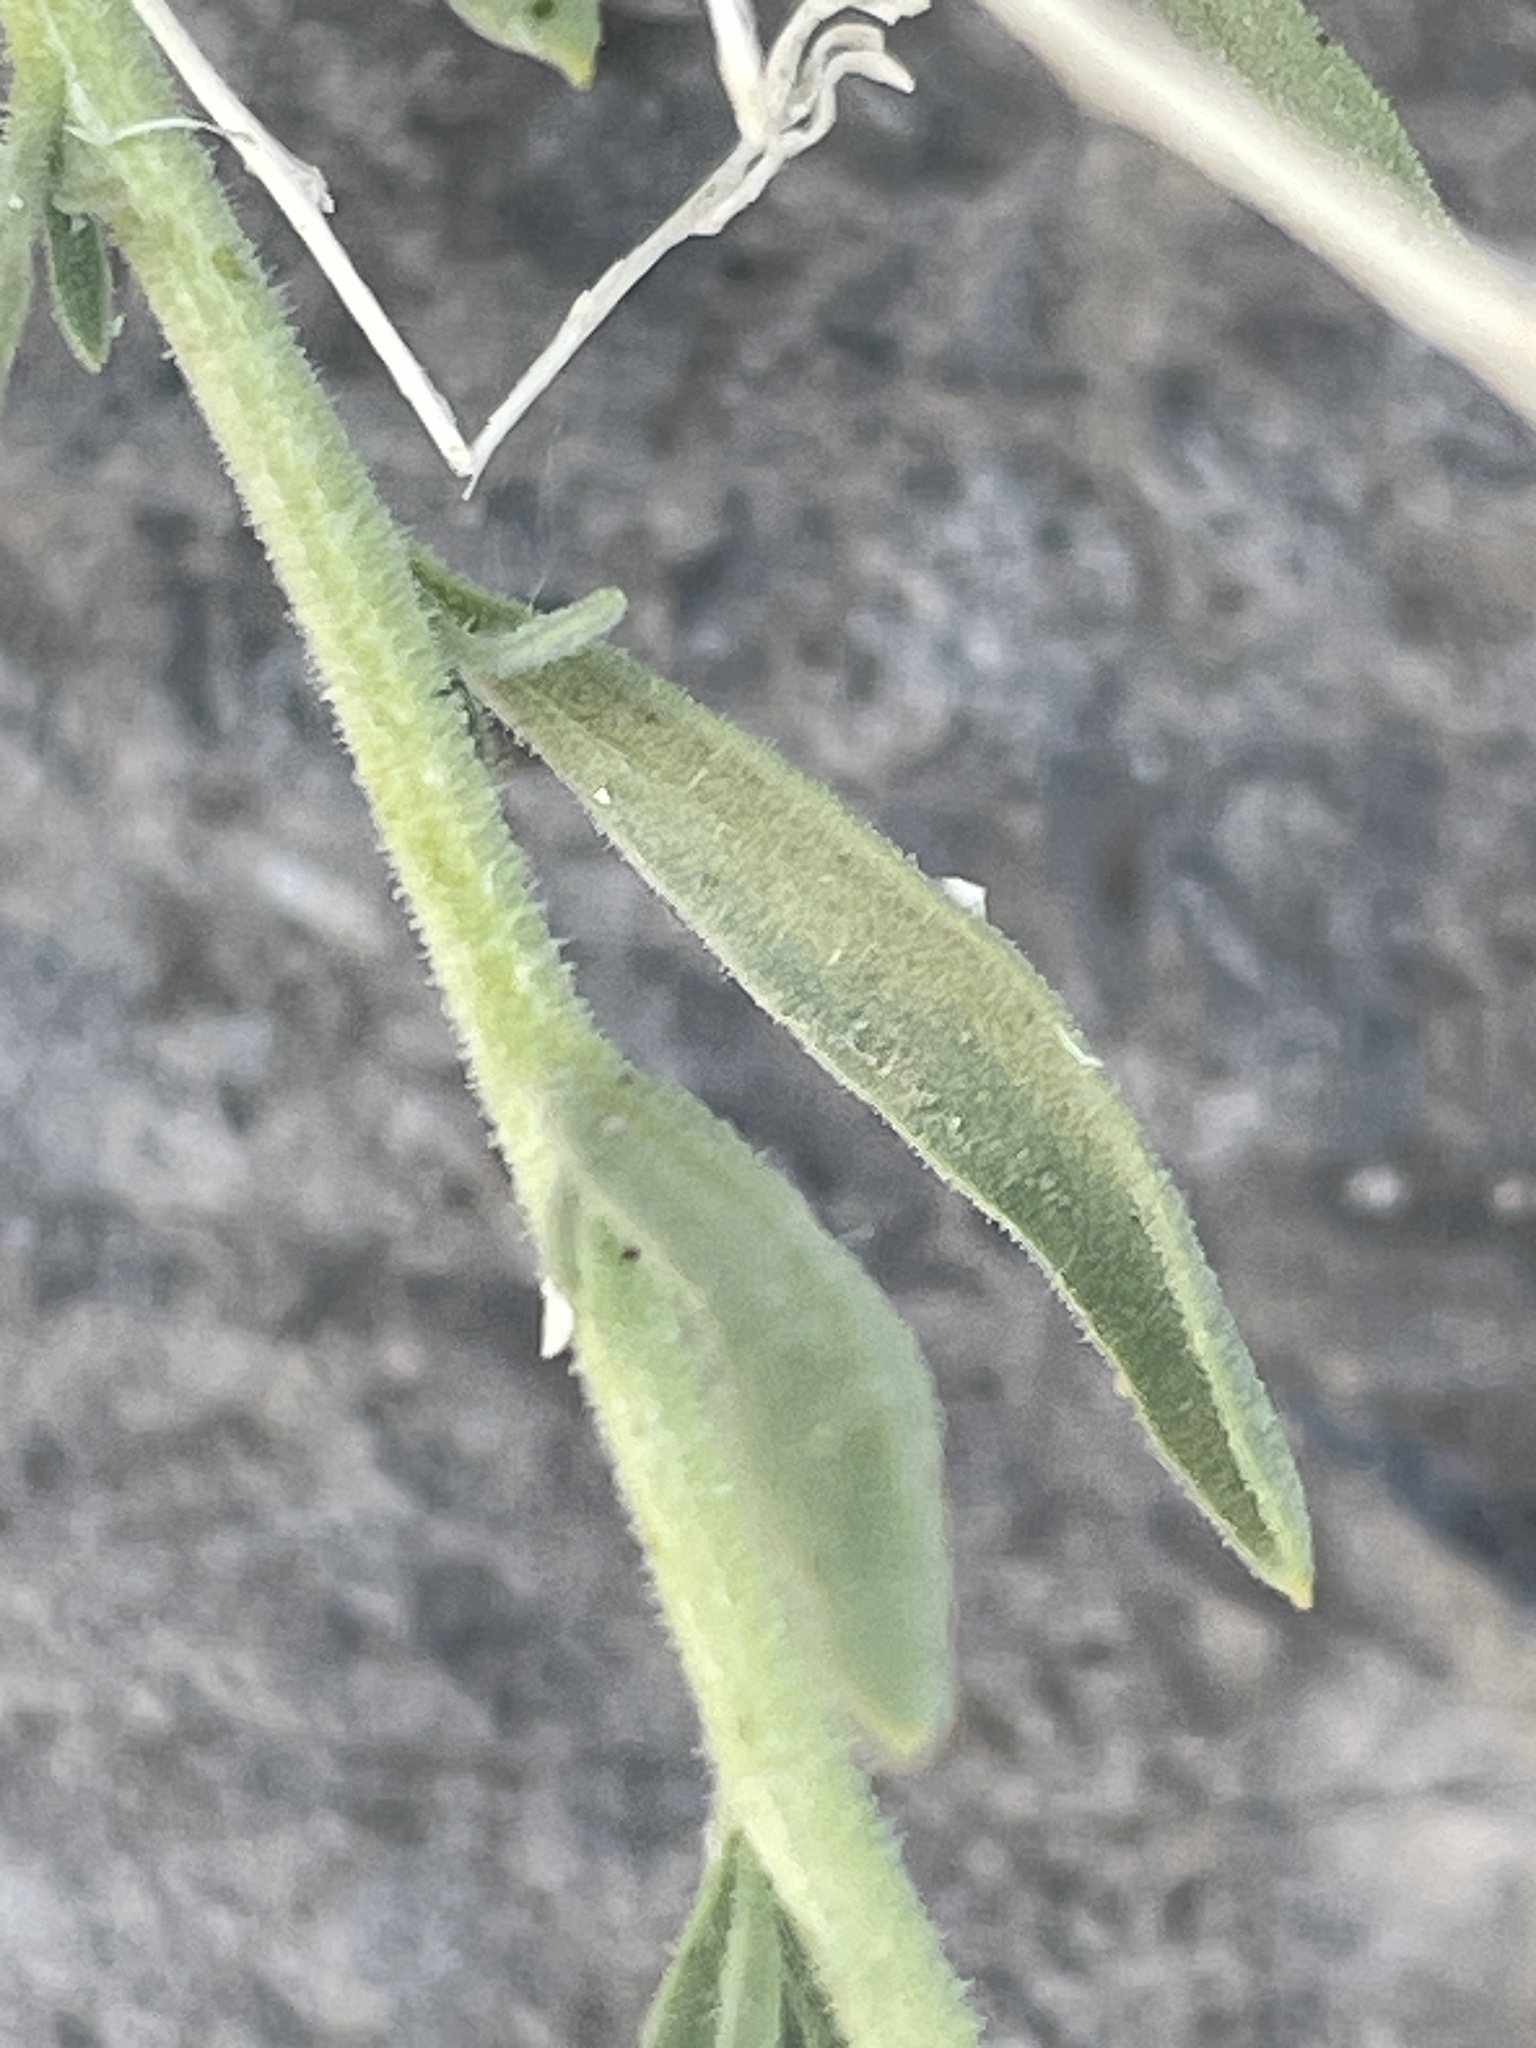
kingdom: Plantae
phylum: Tracheophyta
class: Magnoliopsida
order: Asterales
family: Asteraceae
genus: Brickellia
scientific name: Brickellia oblongifolia
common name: Mojave brickellbush
